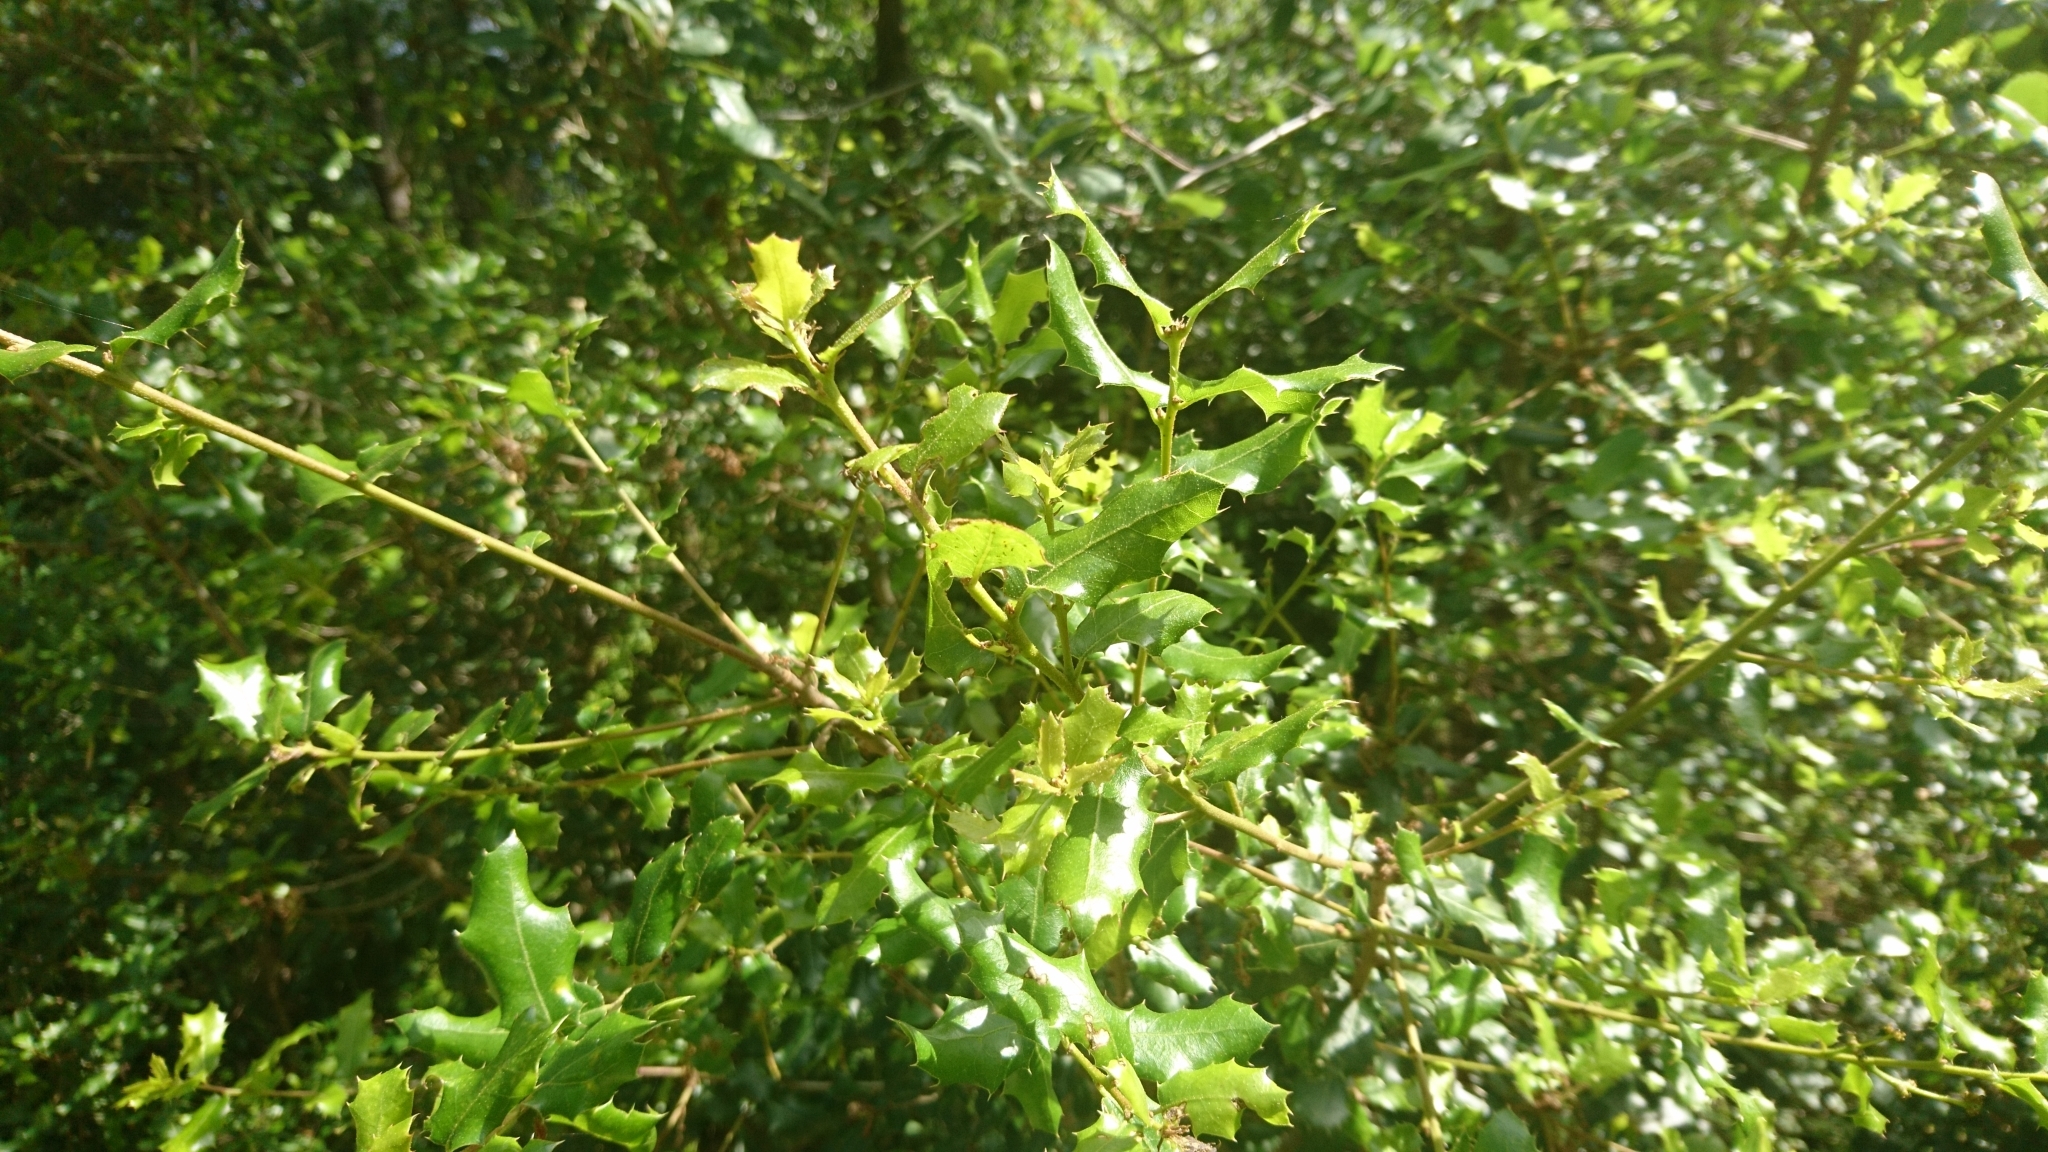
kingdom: Plantae
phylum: Tracheophyta
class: Magnoliopsida
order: Fagales
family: Fagaceae
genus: Quercus
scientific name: Quercus coccifera
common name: Kermes oak
